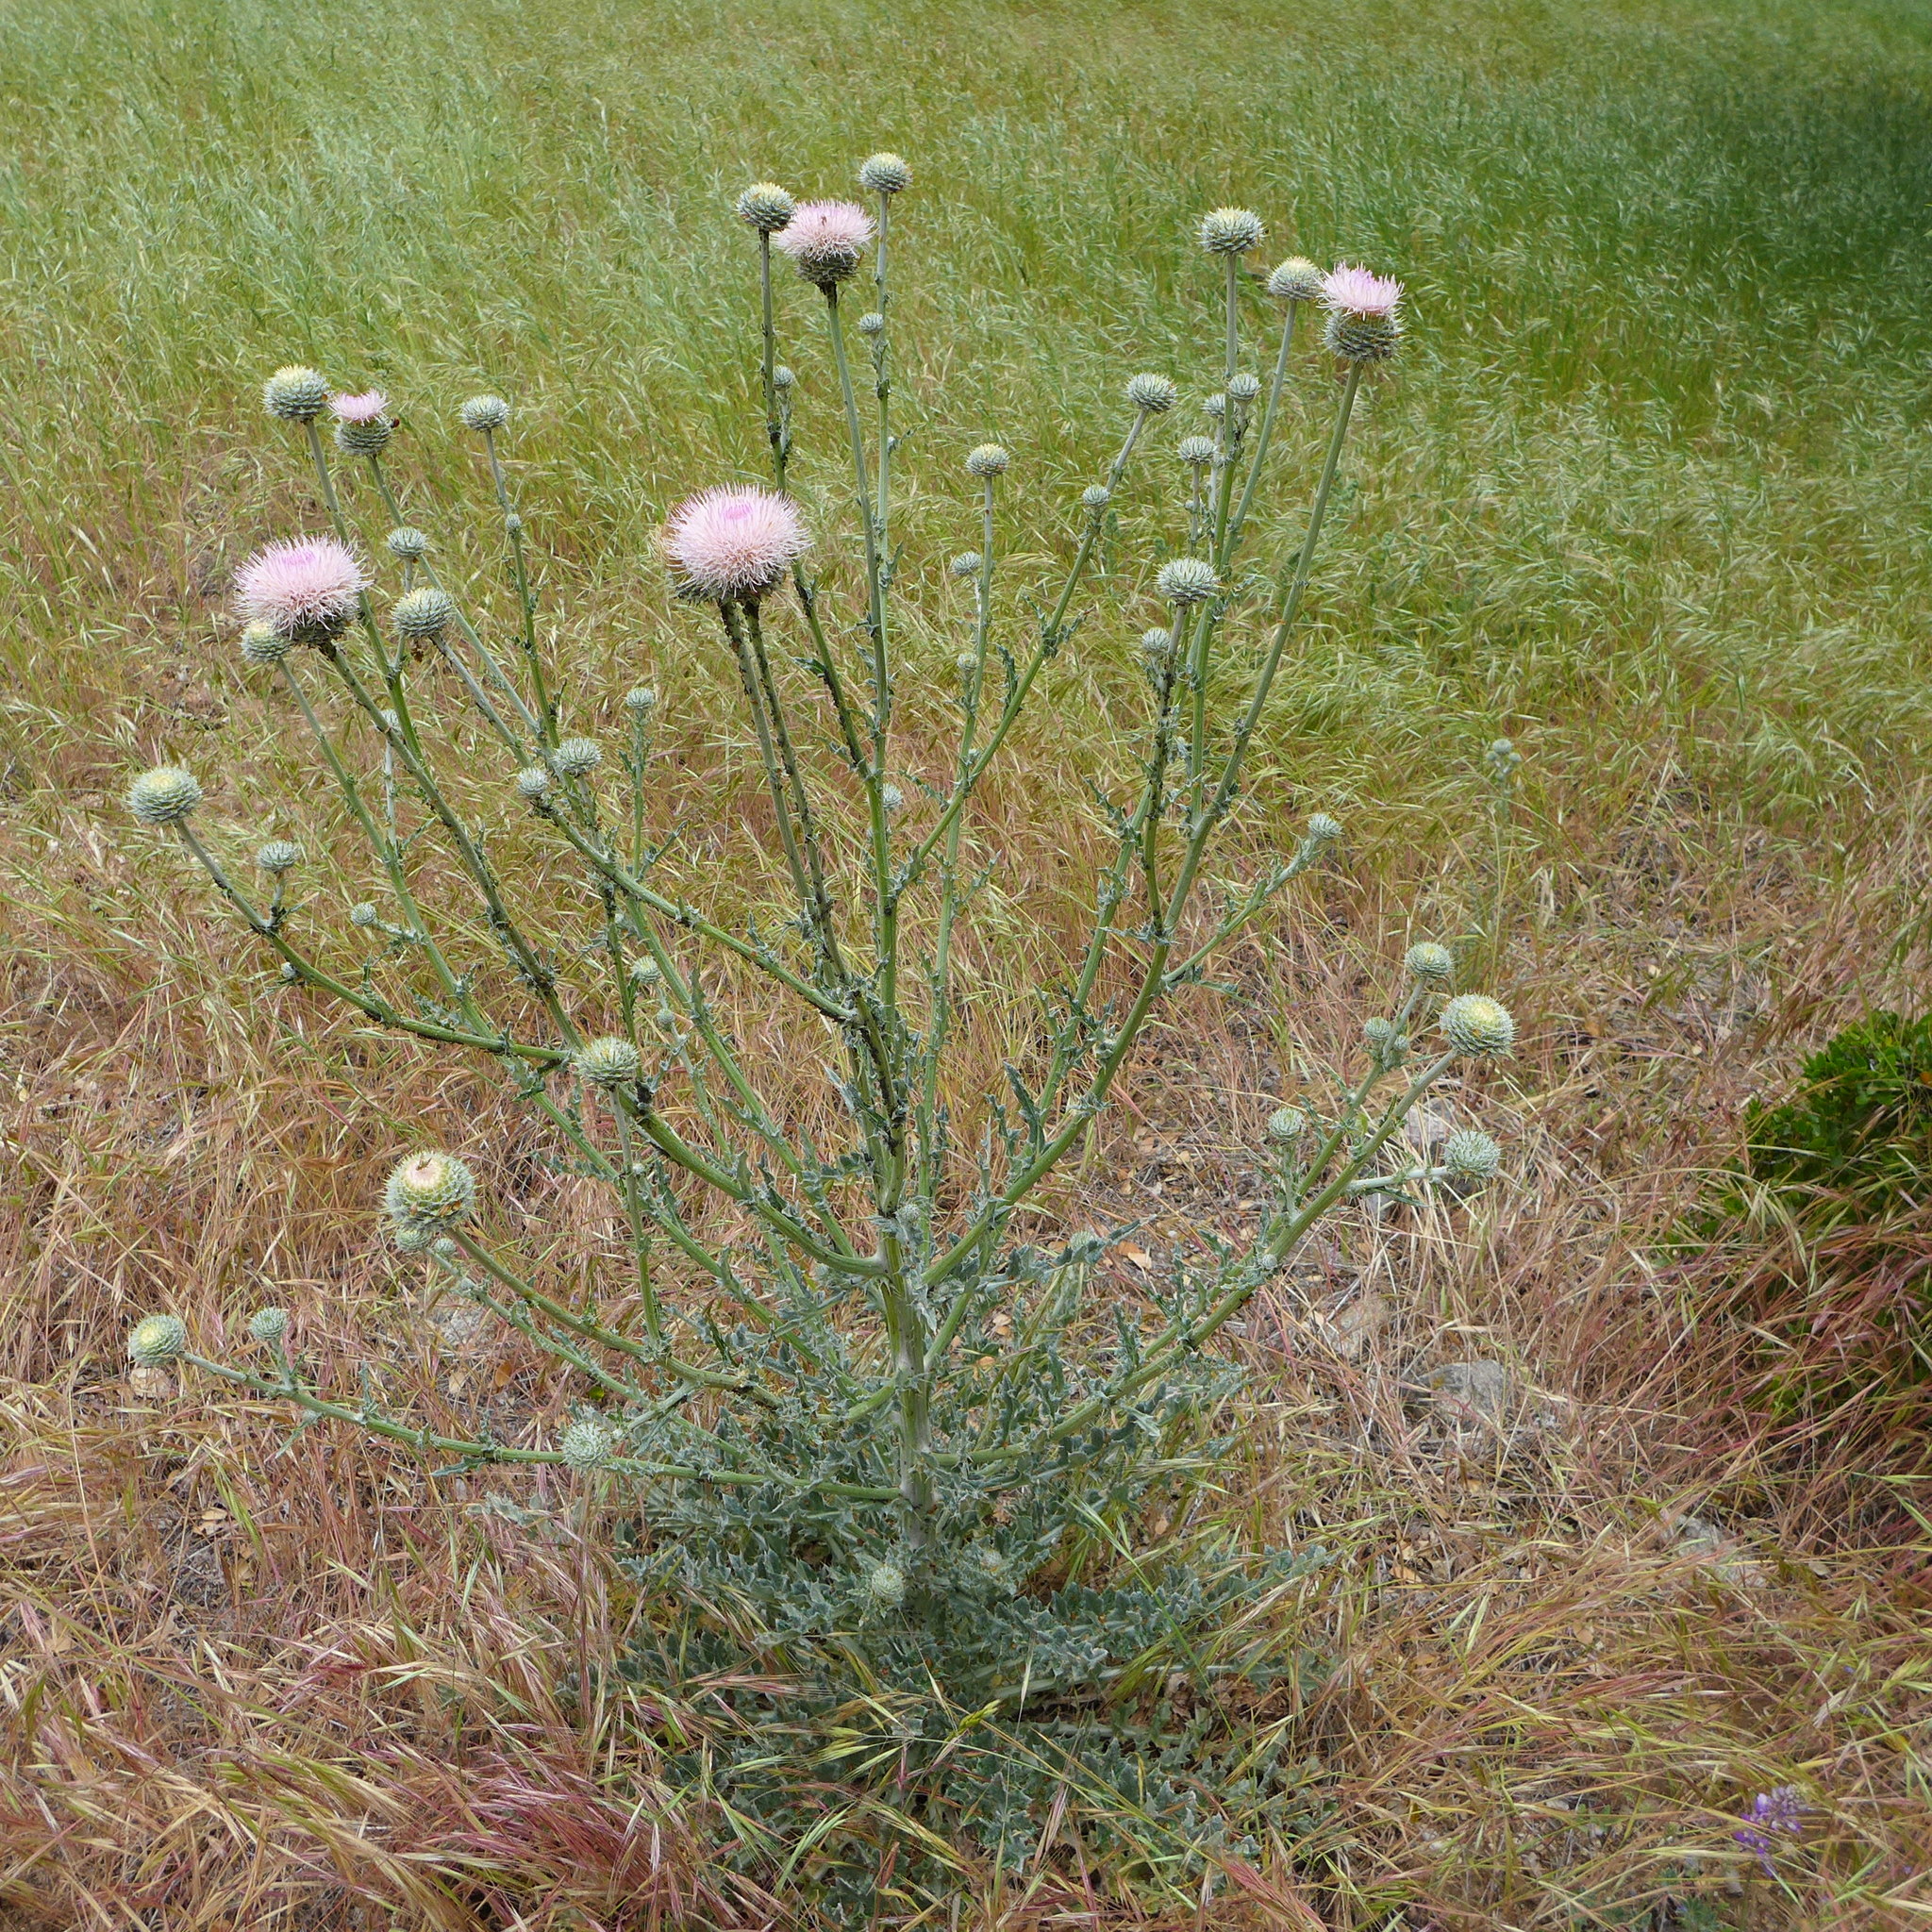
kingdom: Plantae
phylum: Tracheophyta
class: Magnoliopsida
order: Asterales
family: Asteraceae
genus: Cirsium
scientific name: Cirsium occidentale
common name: Western thistle
